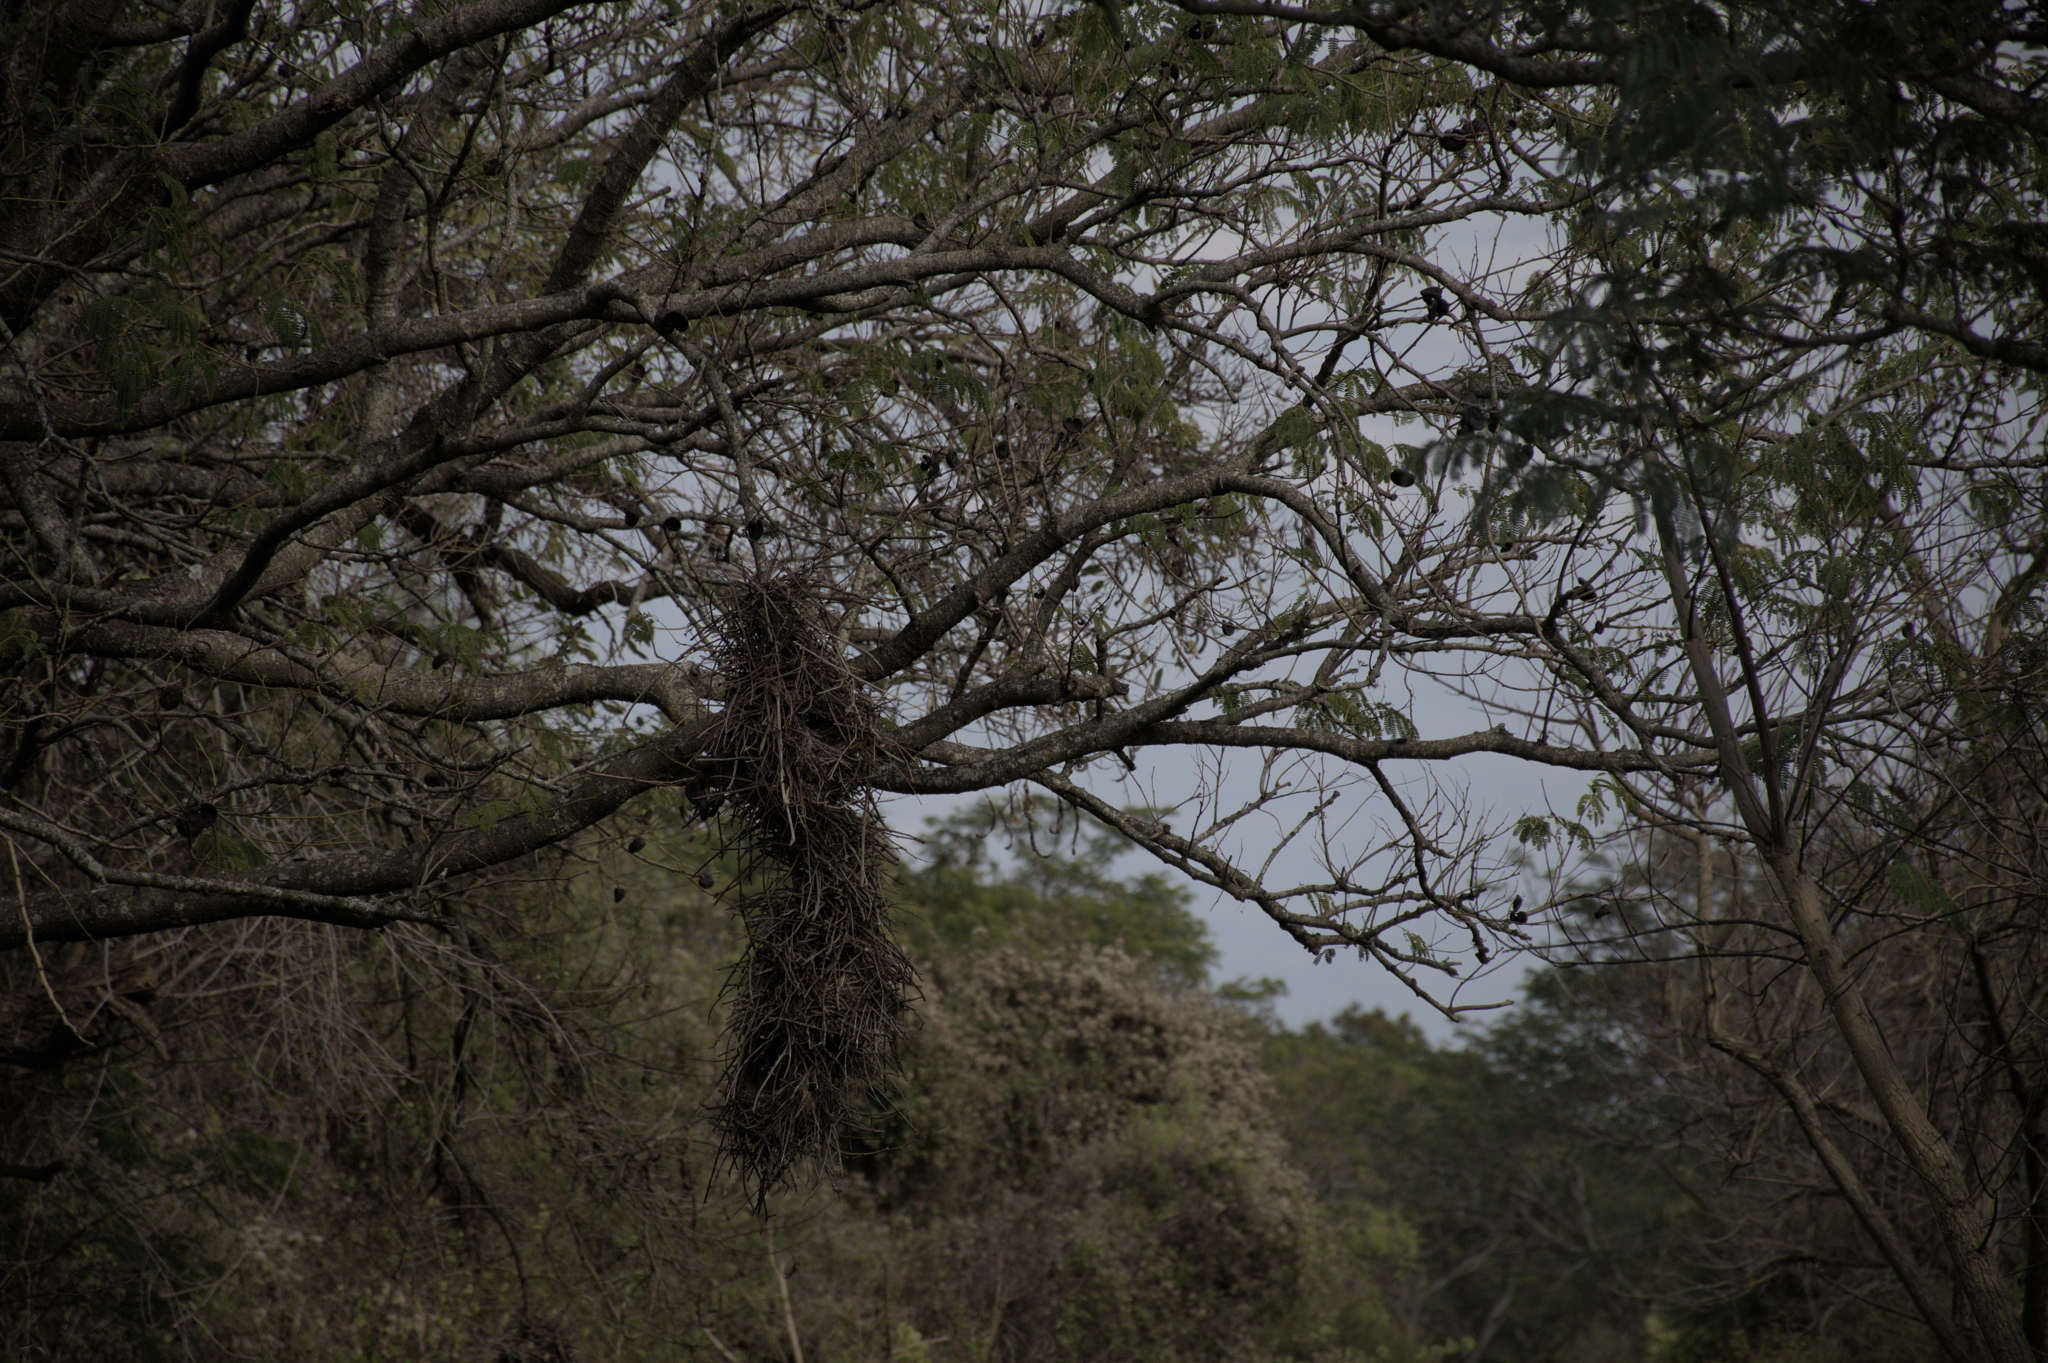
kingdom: Animalia
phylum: Chordata
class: Aves
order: Passeriformes
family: Furnariidae
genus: Phacellodomus
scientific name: Phacellodomus ruber
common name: Greater thornbird
